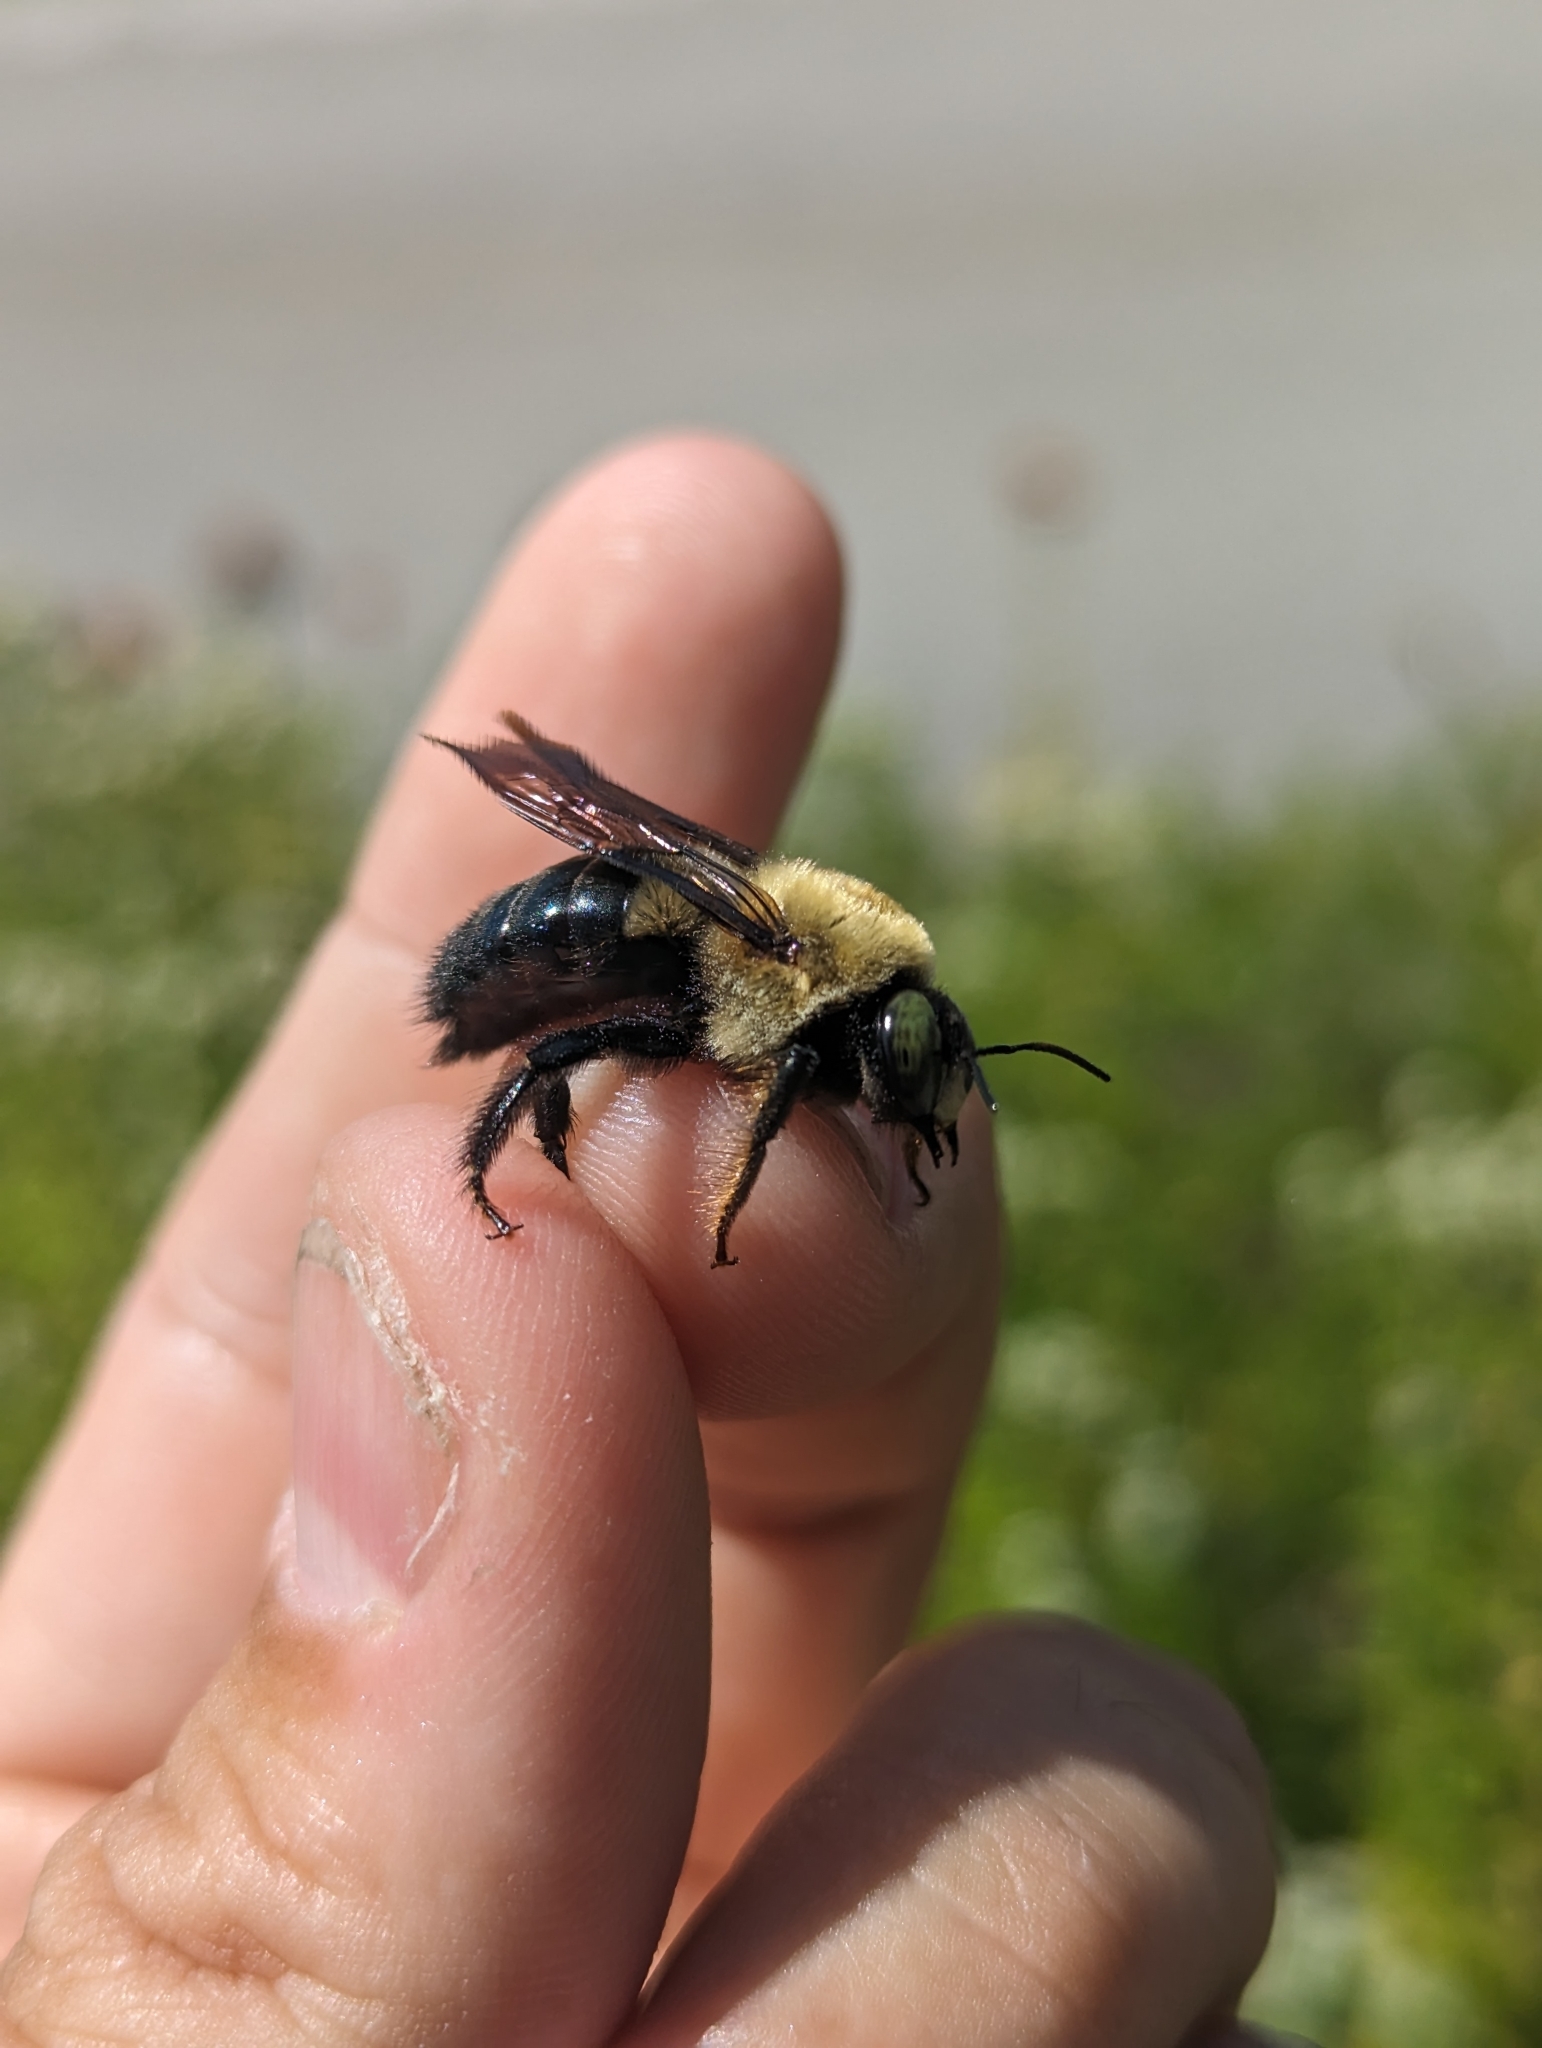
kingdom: Animalia
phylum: Arthropoda
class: Insecta
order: Hymenoptera
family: Apidae
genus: Xylocopa
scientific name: Xylocopa virginica
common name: Carpenter bee
